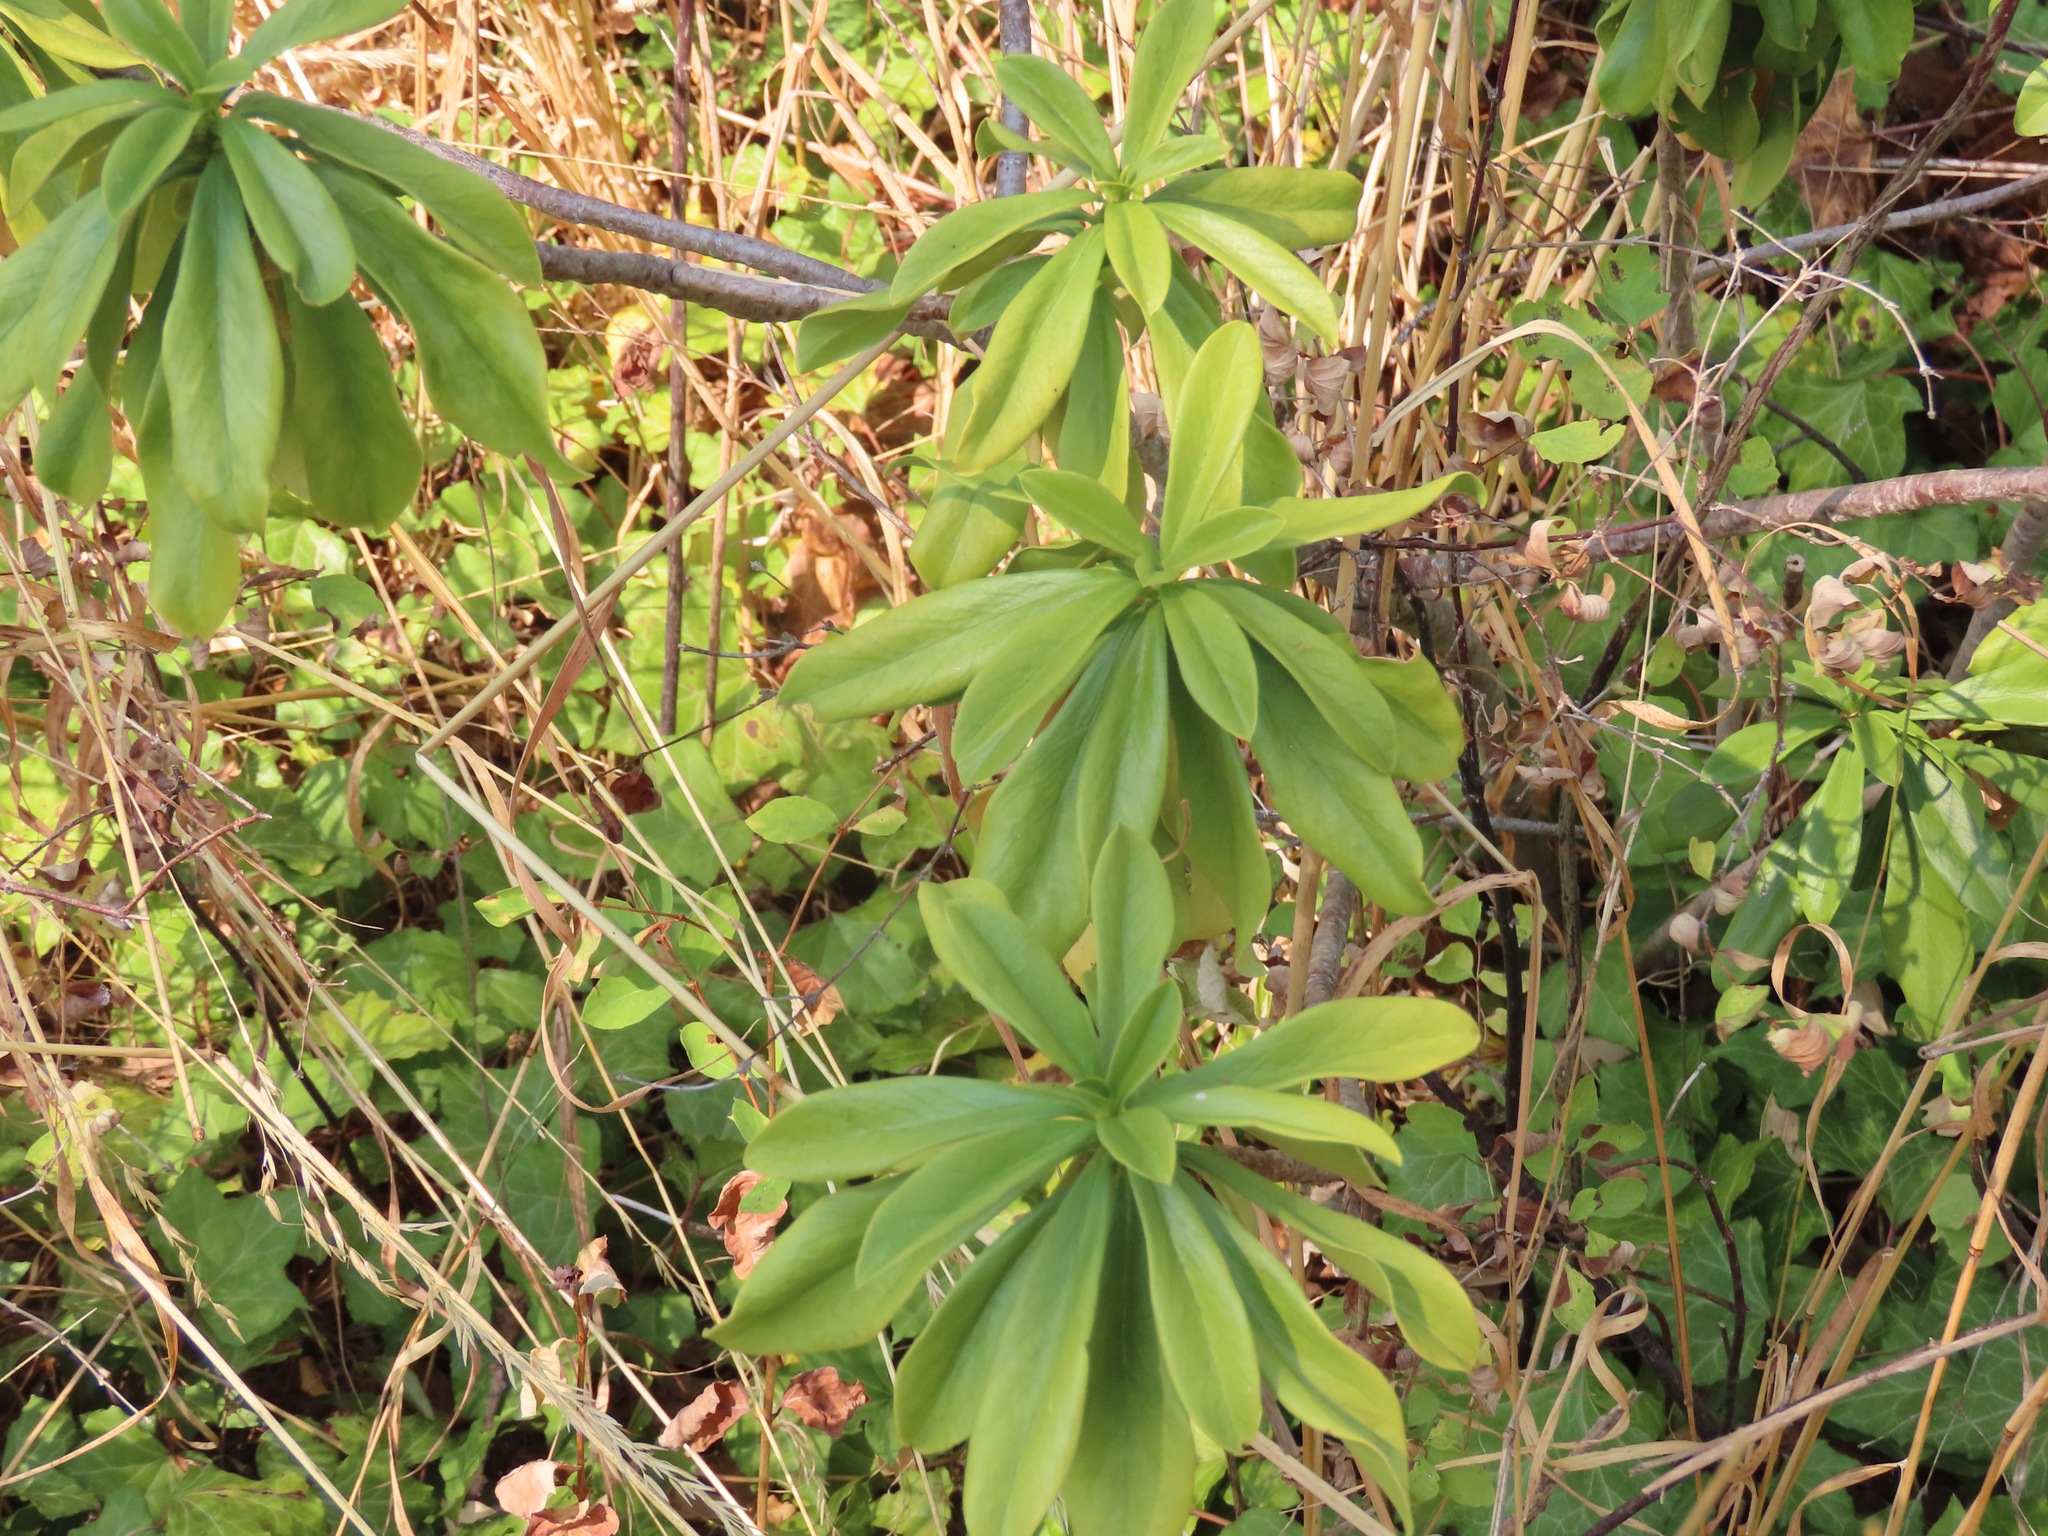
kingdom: Plantae
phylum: Tracheophyta
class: Magnoliopsida
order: Malvales
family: Thymelaeaceae
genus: Daphne
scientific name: Daphne laureola
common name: Spurge-laurel
